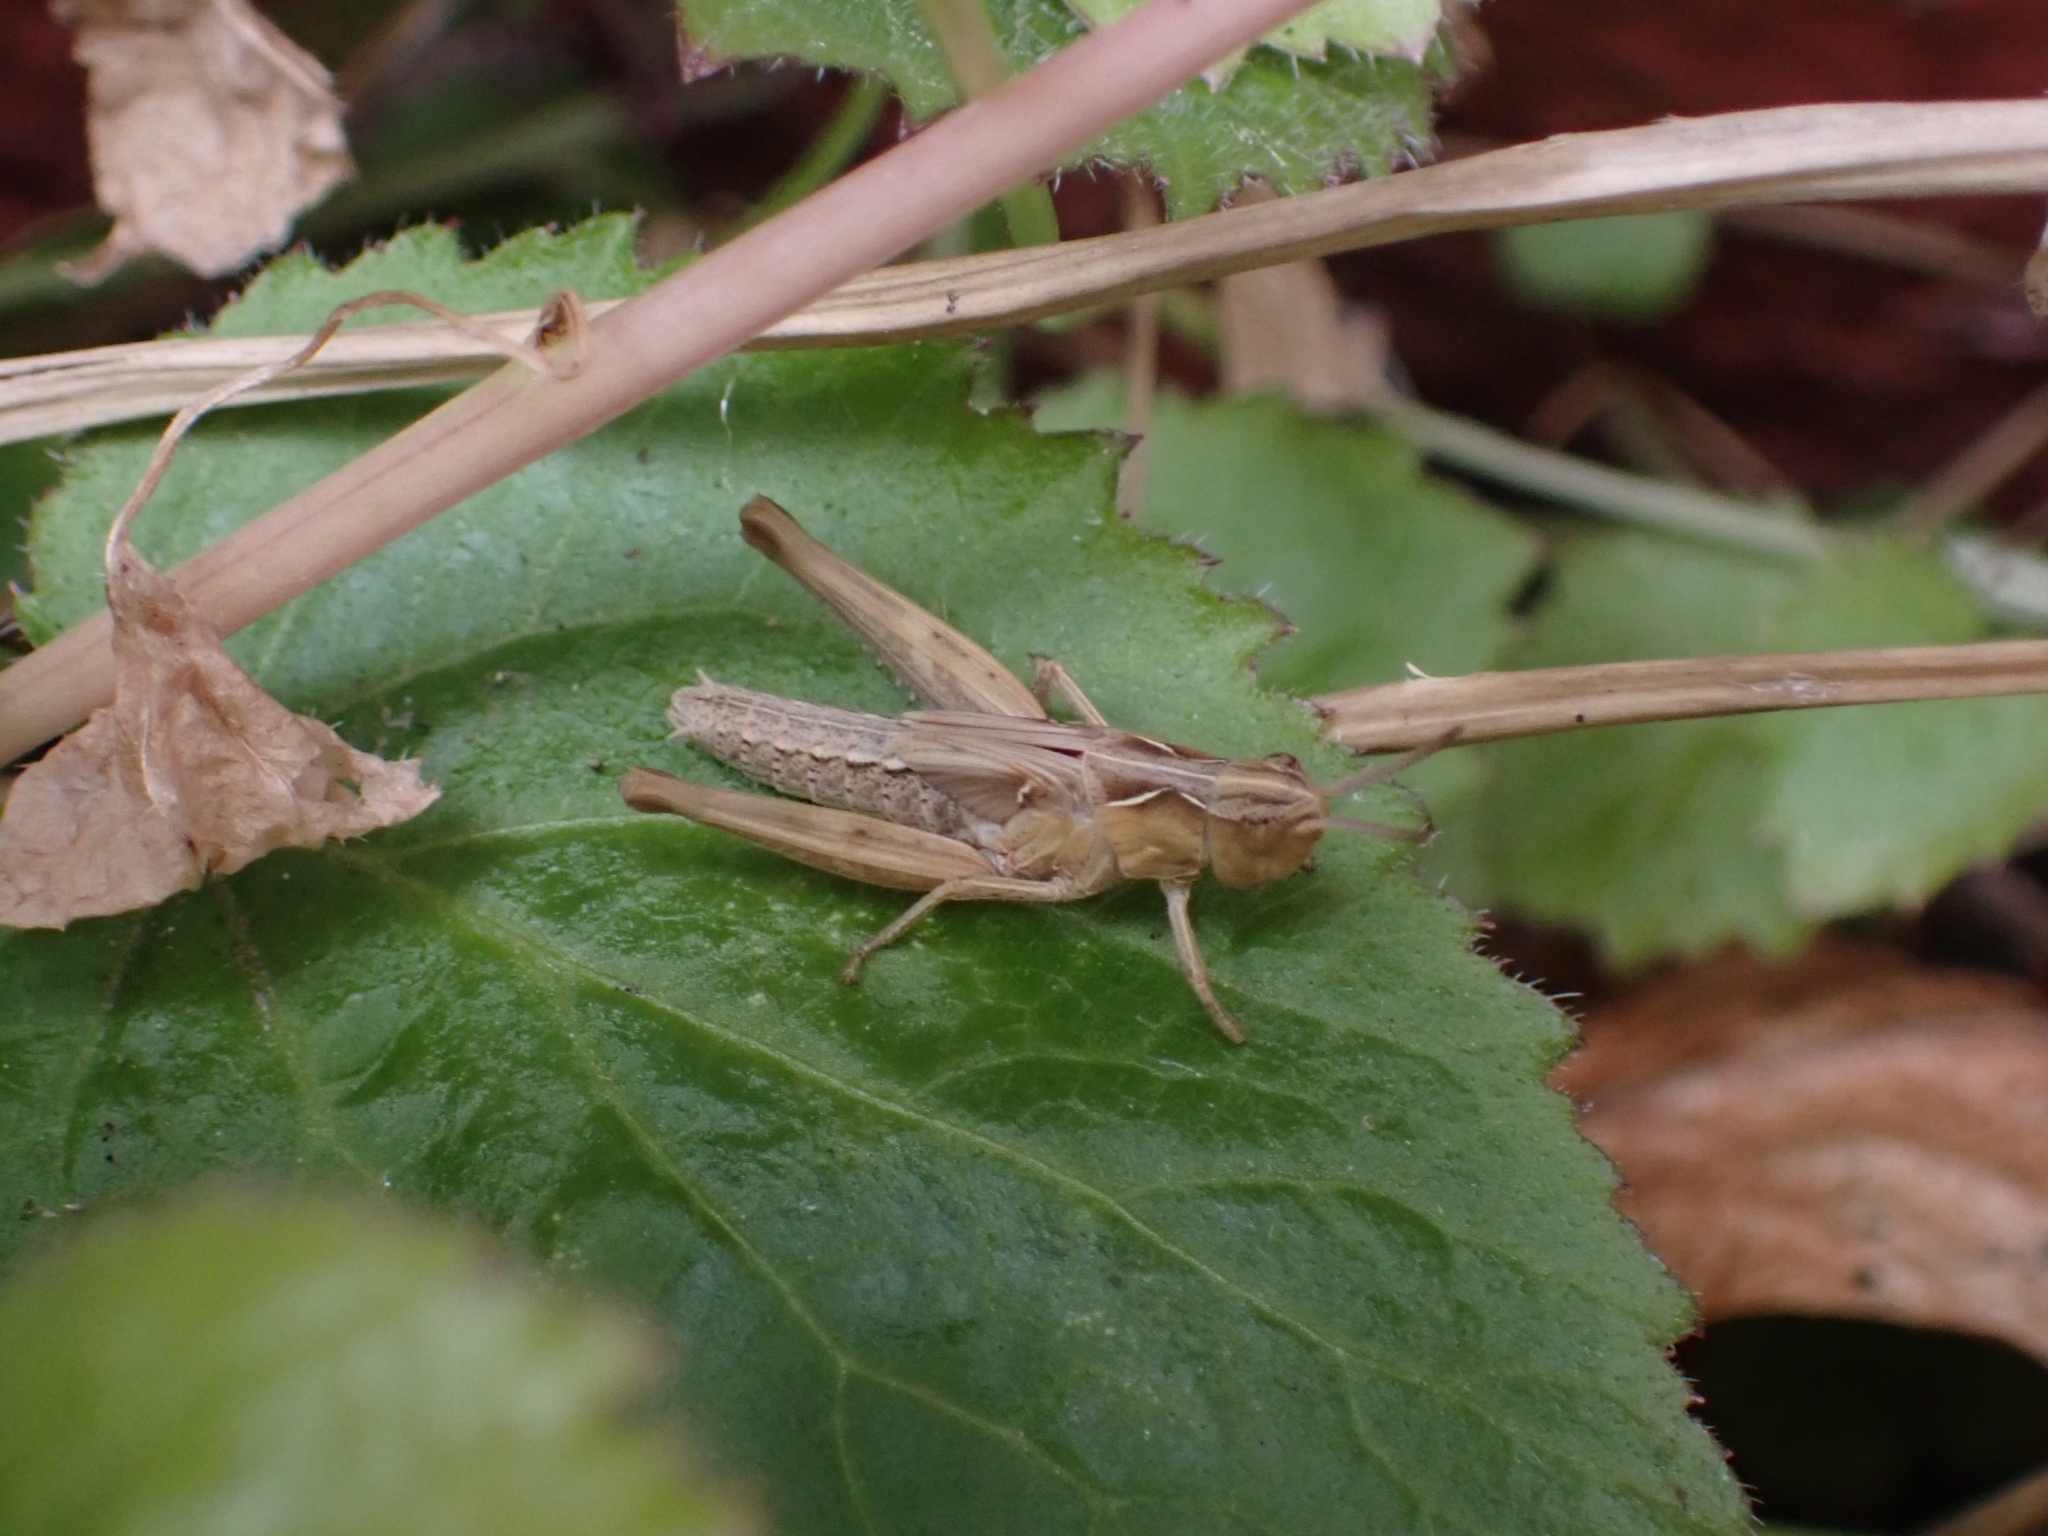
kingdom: Animalia
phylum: Arthropoda
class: Insecta
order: Orthoptera
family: Acrididae
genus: Chorthippus
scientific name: Chorthippus brunneus
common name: Field grasshopper
